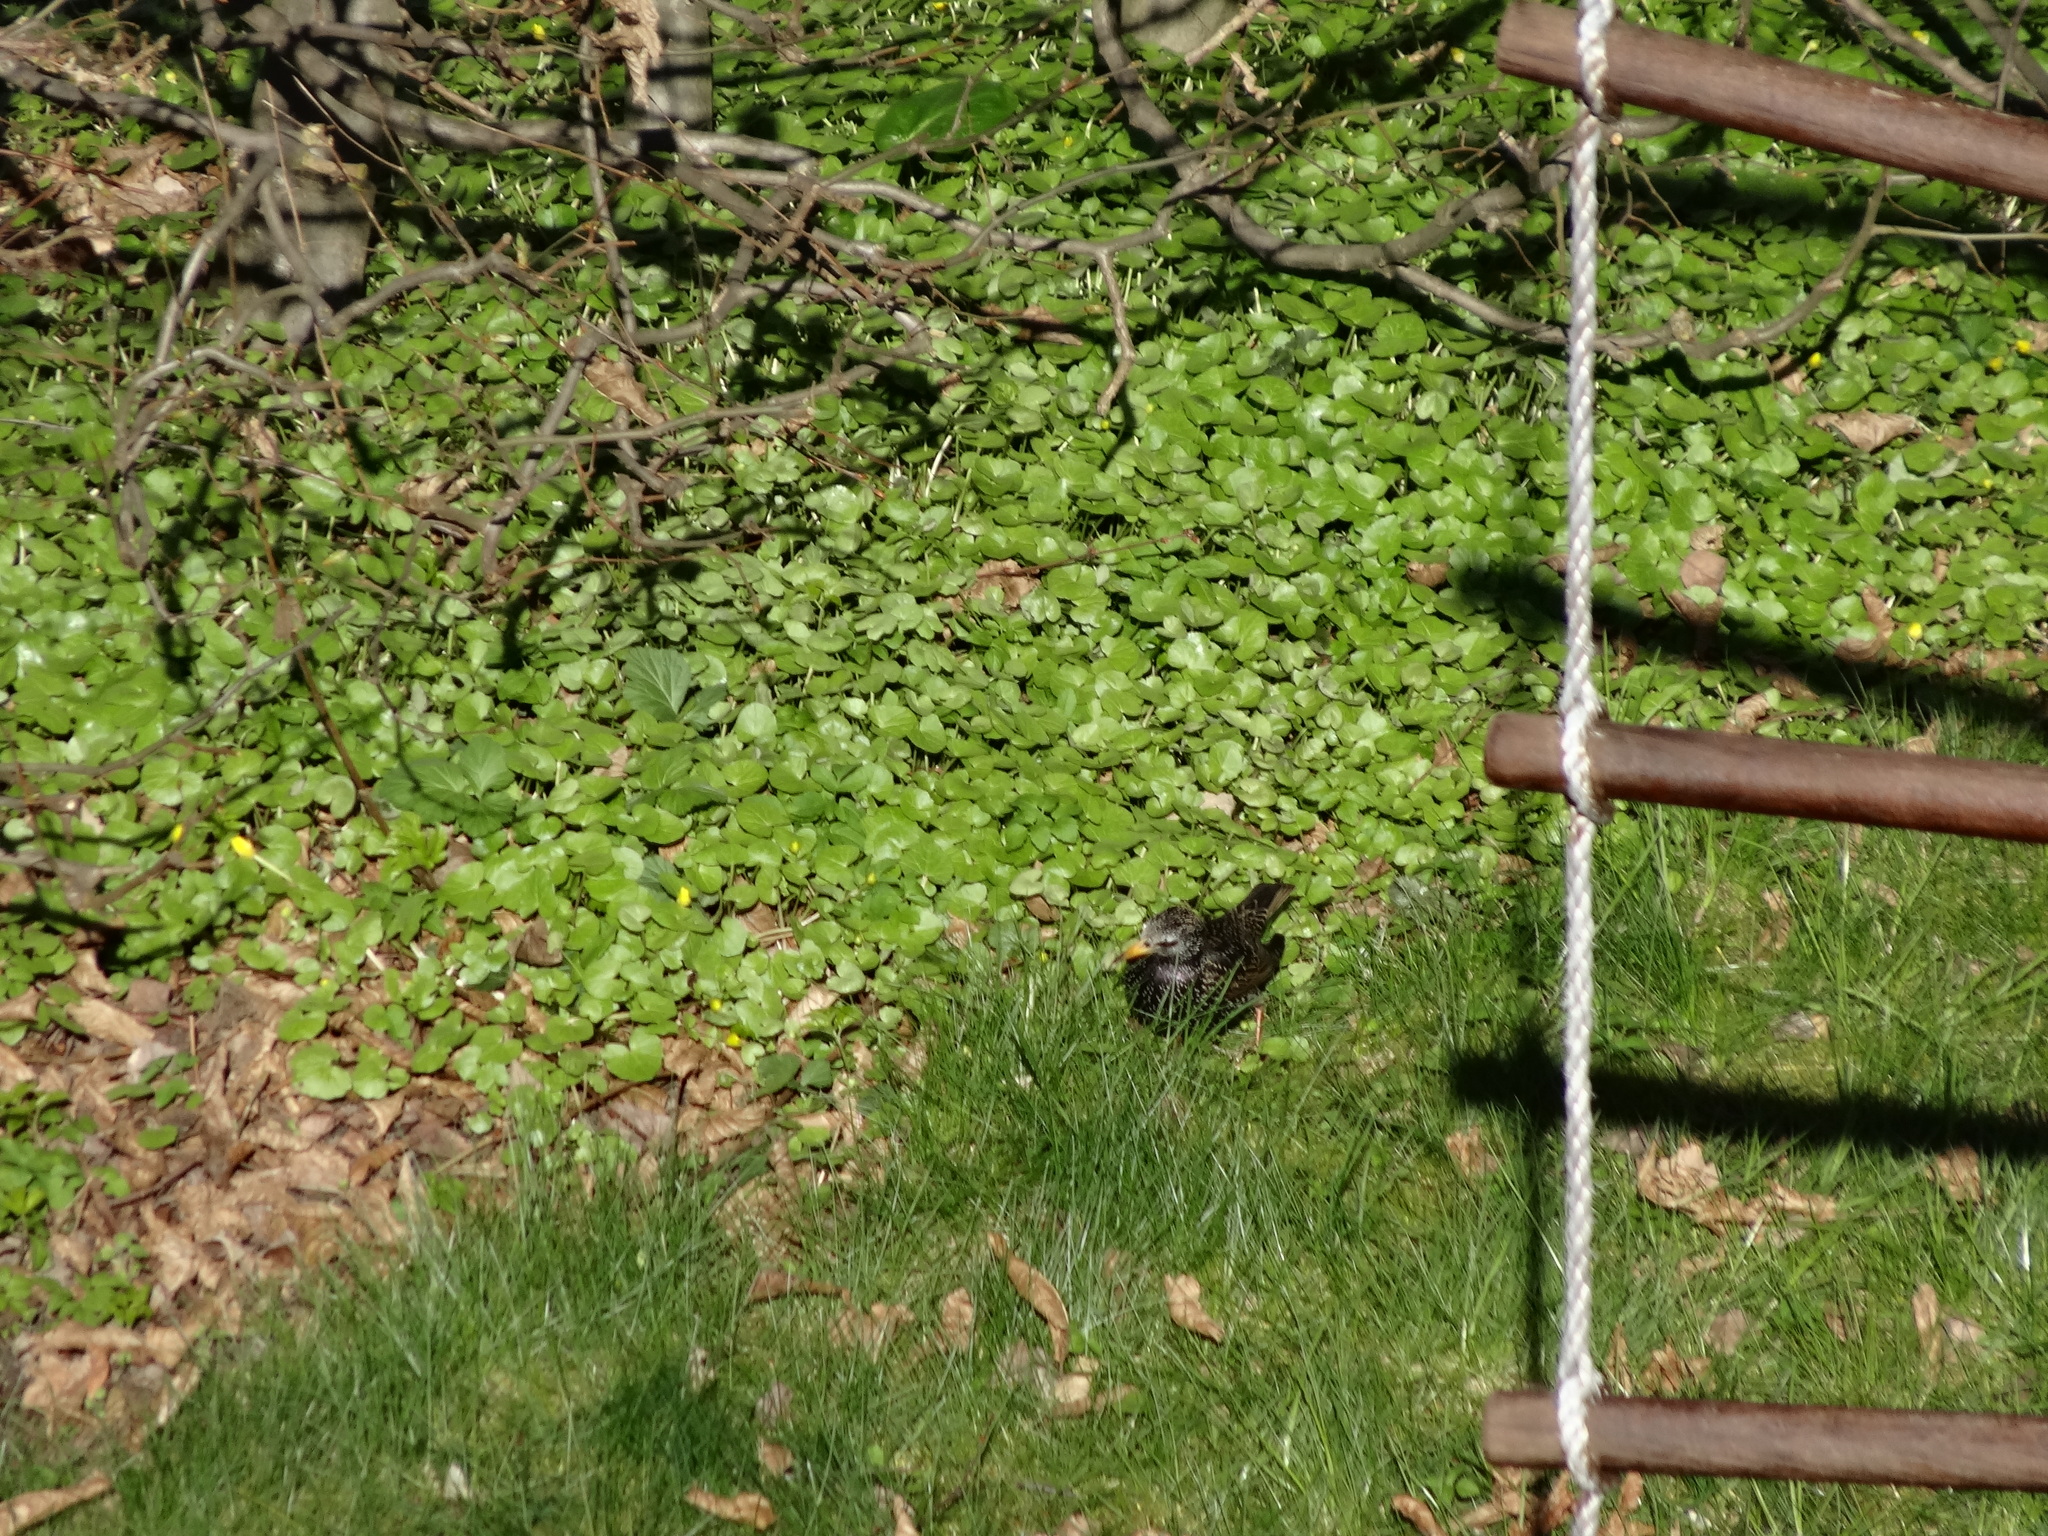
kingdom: Animalia
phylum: Chordata
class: Aves
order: Passeriformes
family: Sturnidae
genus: Sturnus
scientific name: Sturnus vulgaris
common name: Common starling
